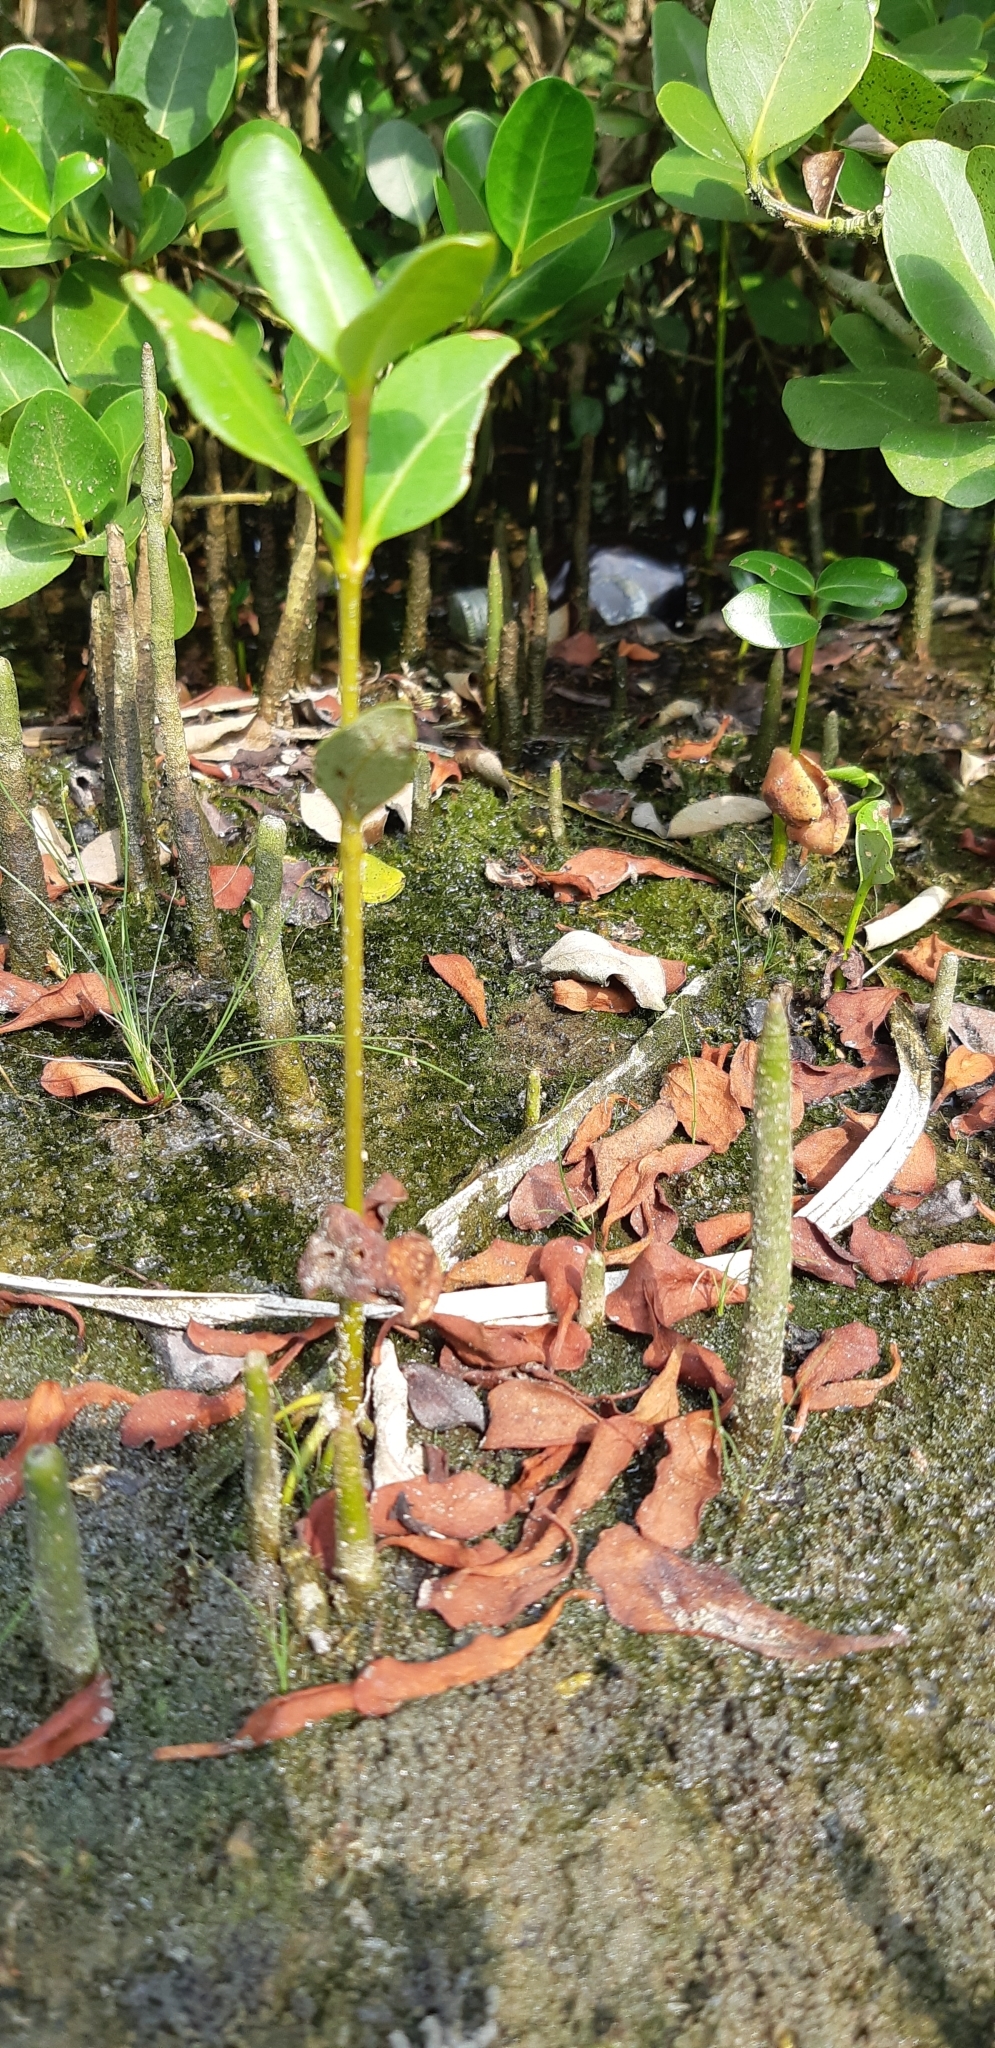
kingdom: Plantae
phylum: Tracheophyta
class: Magnoliopsida
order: Lamiales
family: Acanthaceae
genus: Avicennia
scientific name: Avicennia marina
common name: Gray mangrove
